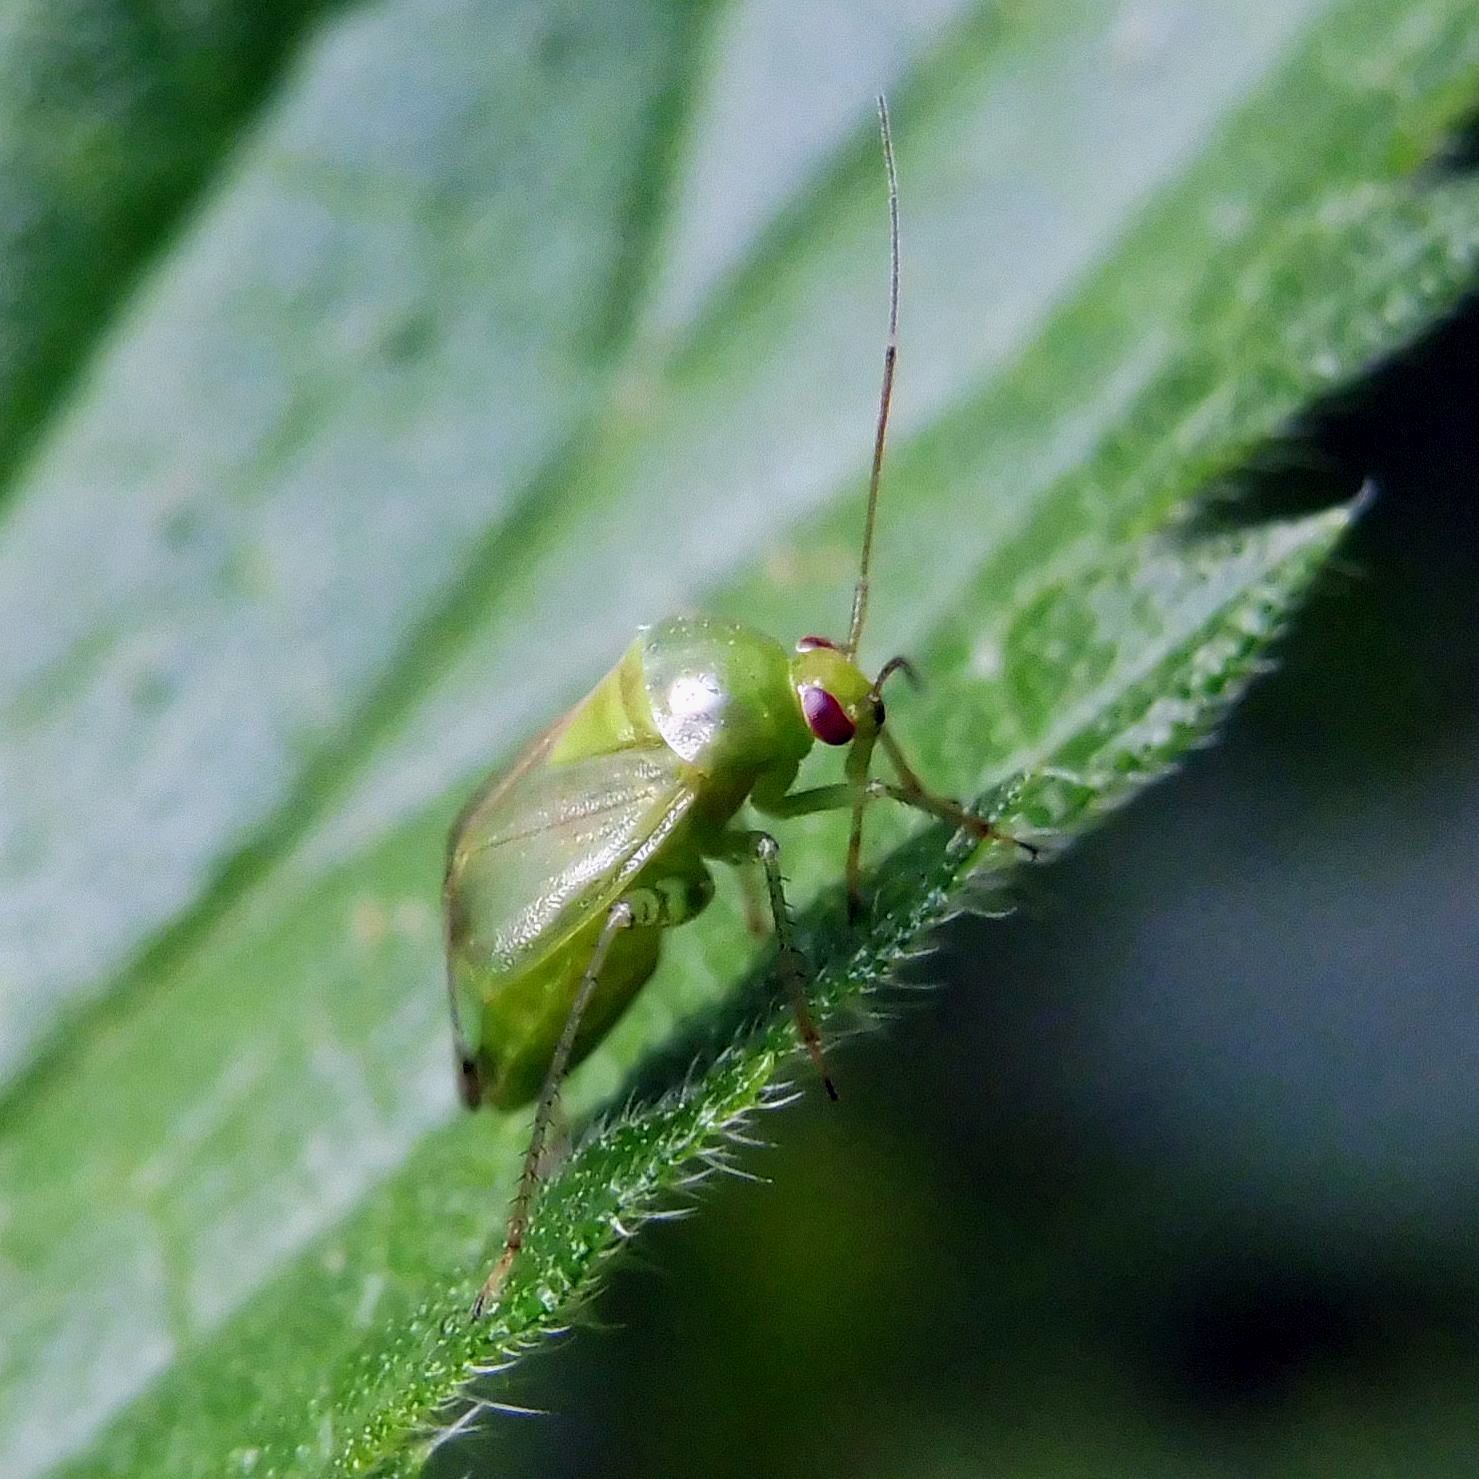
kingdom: Animalia
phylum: Arthropoda
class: Insecta
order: Hemiptera
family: Miridae
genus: Apolygus
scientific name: Apolygus spinolae
